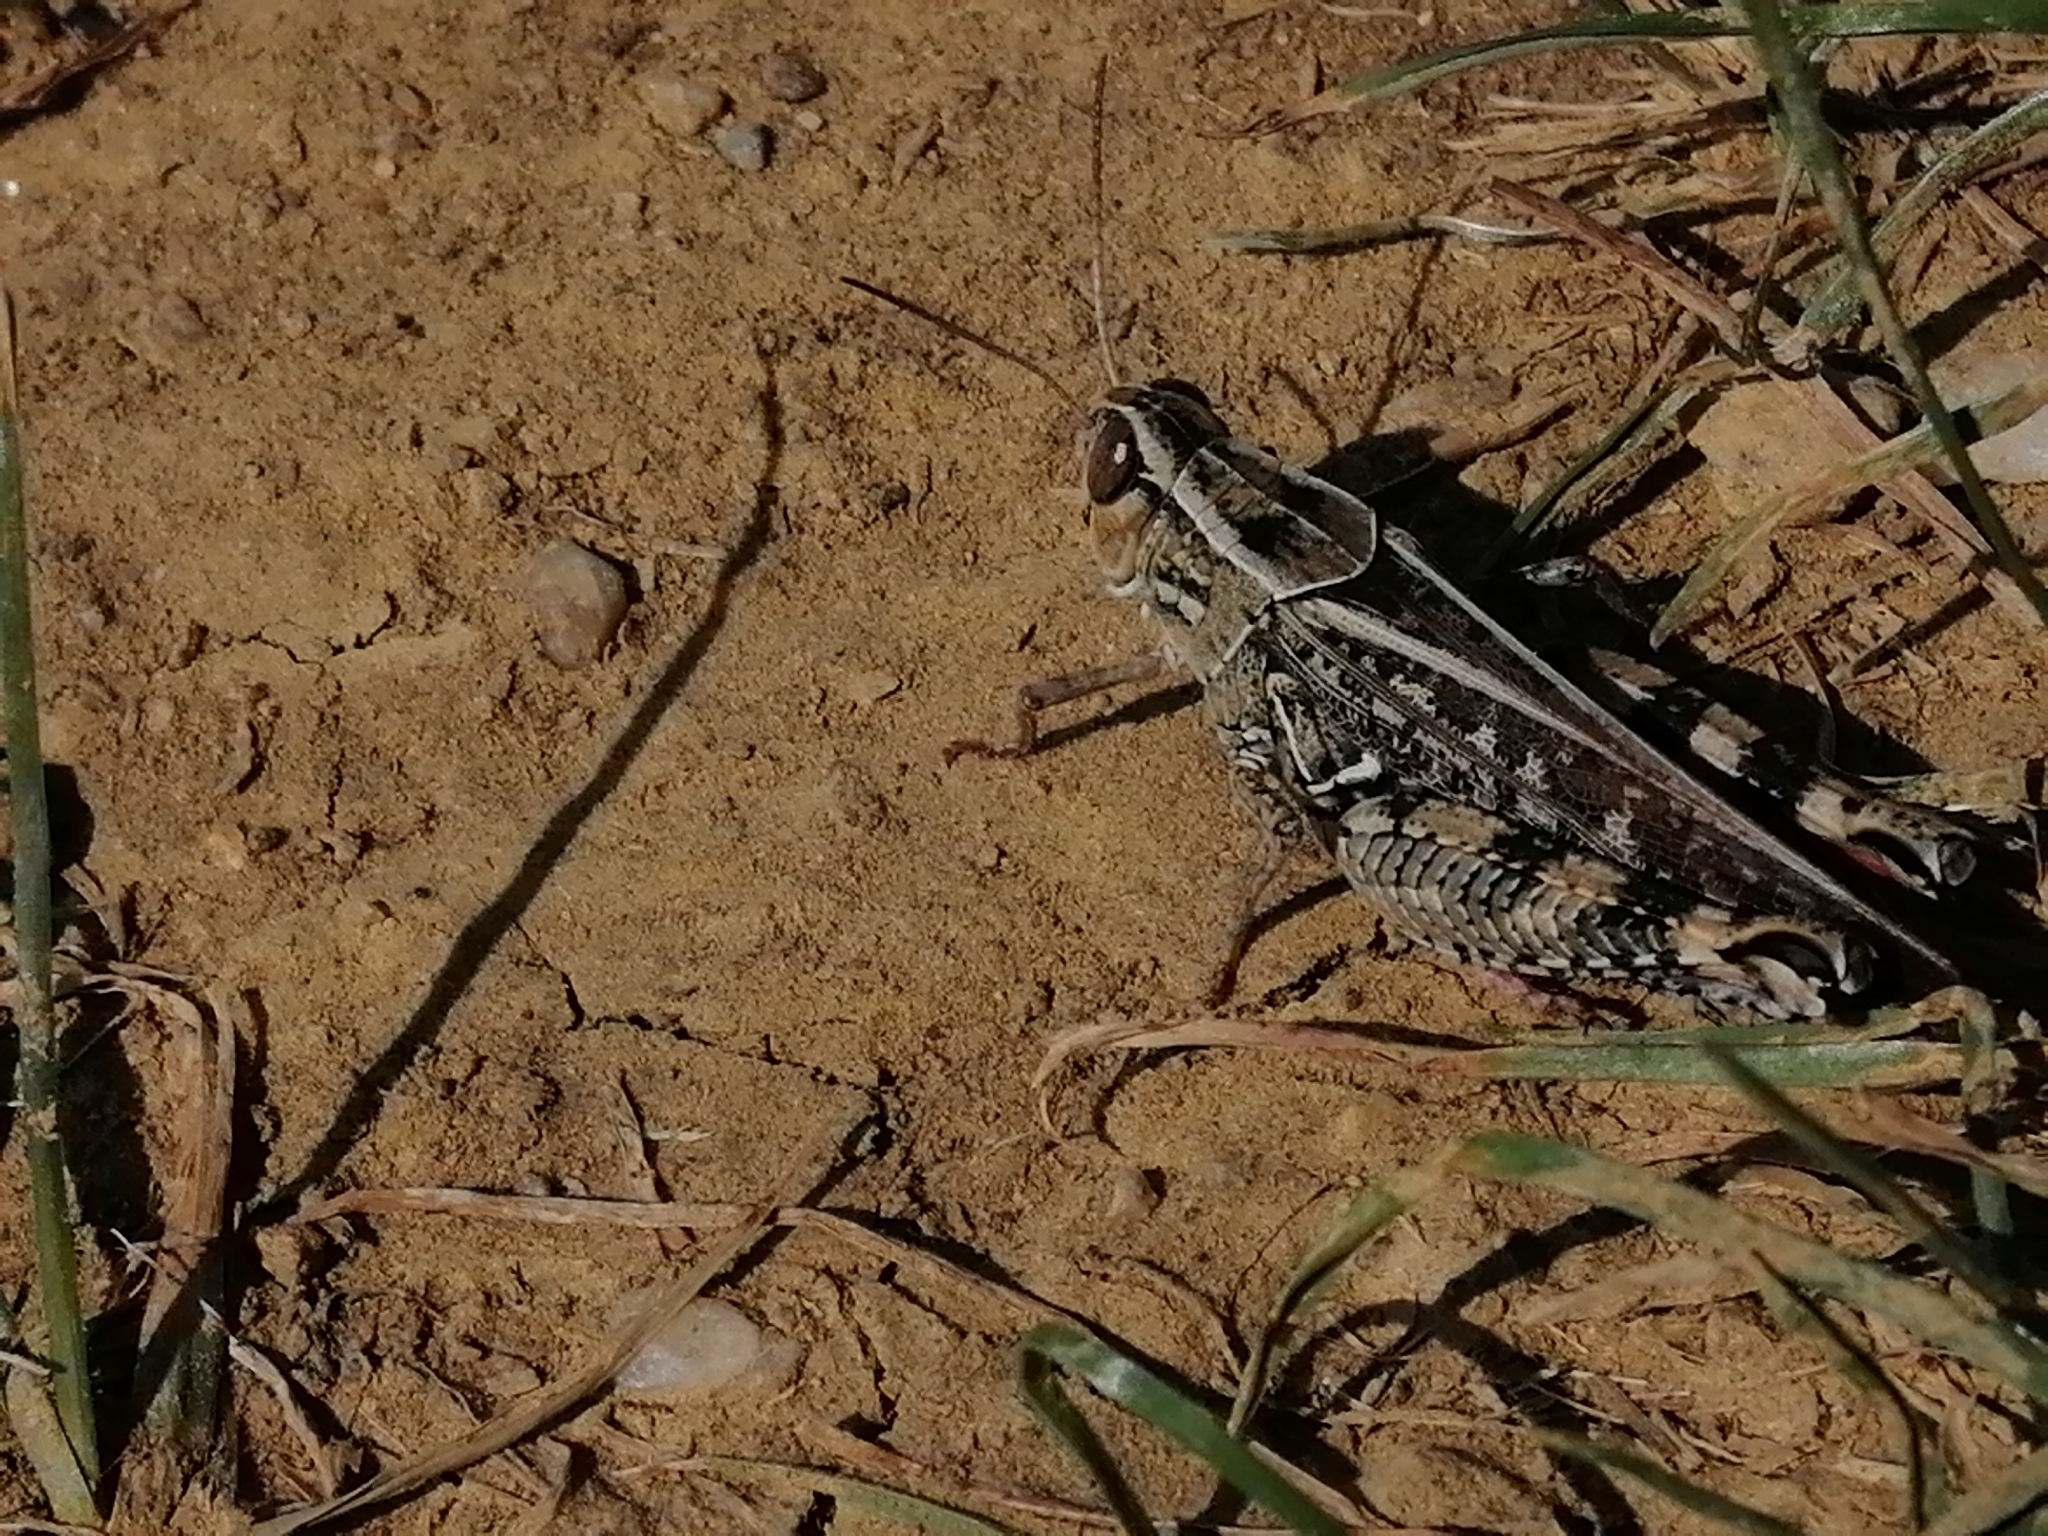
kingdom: Animalia
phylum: Arthropoda
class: Insecta
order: Orthoptera
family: Acrididae
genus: Calliptamus
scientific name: Calliptamus italicus
